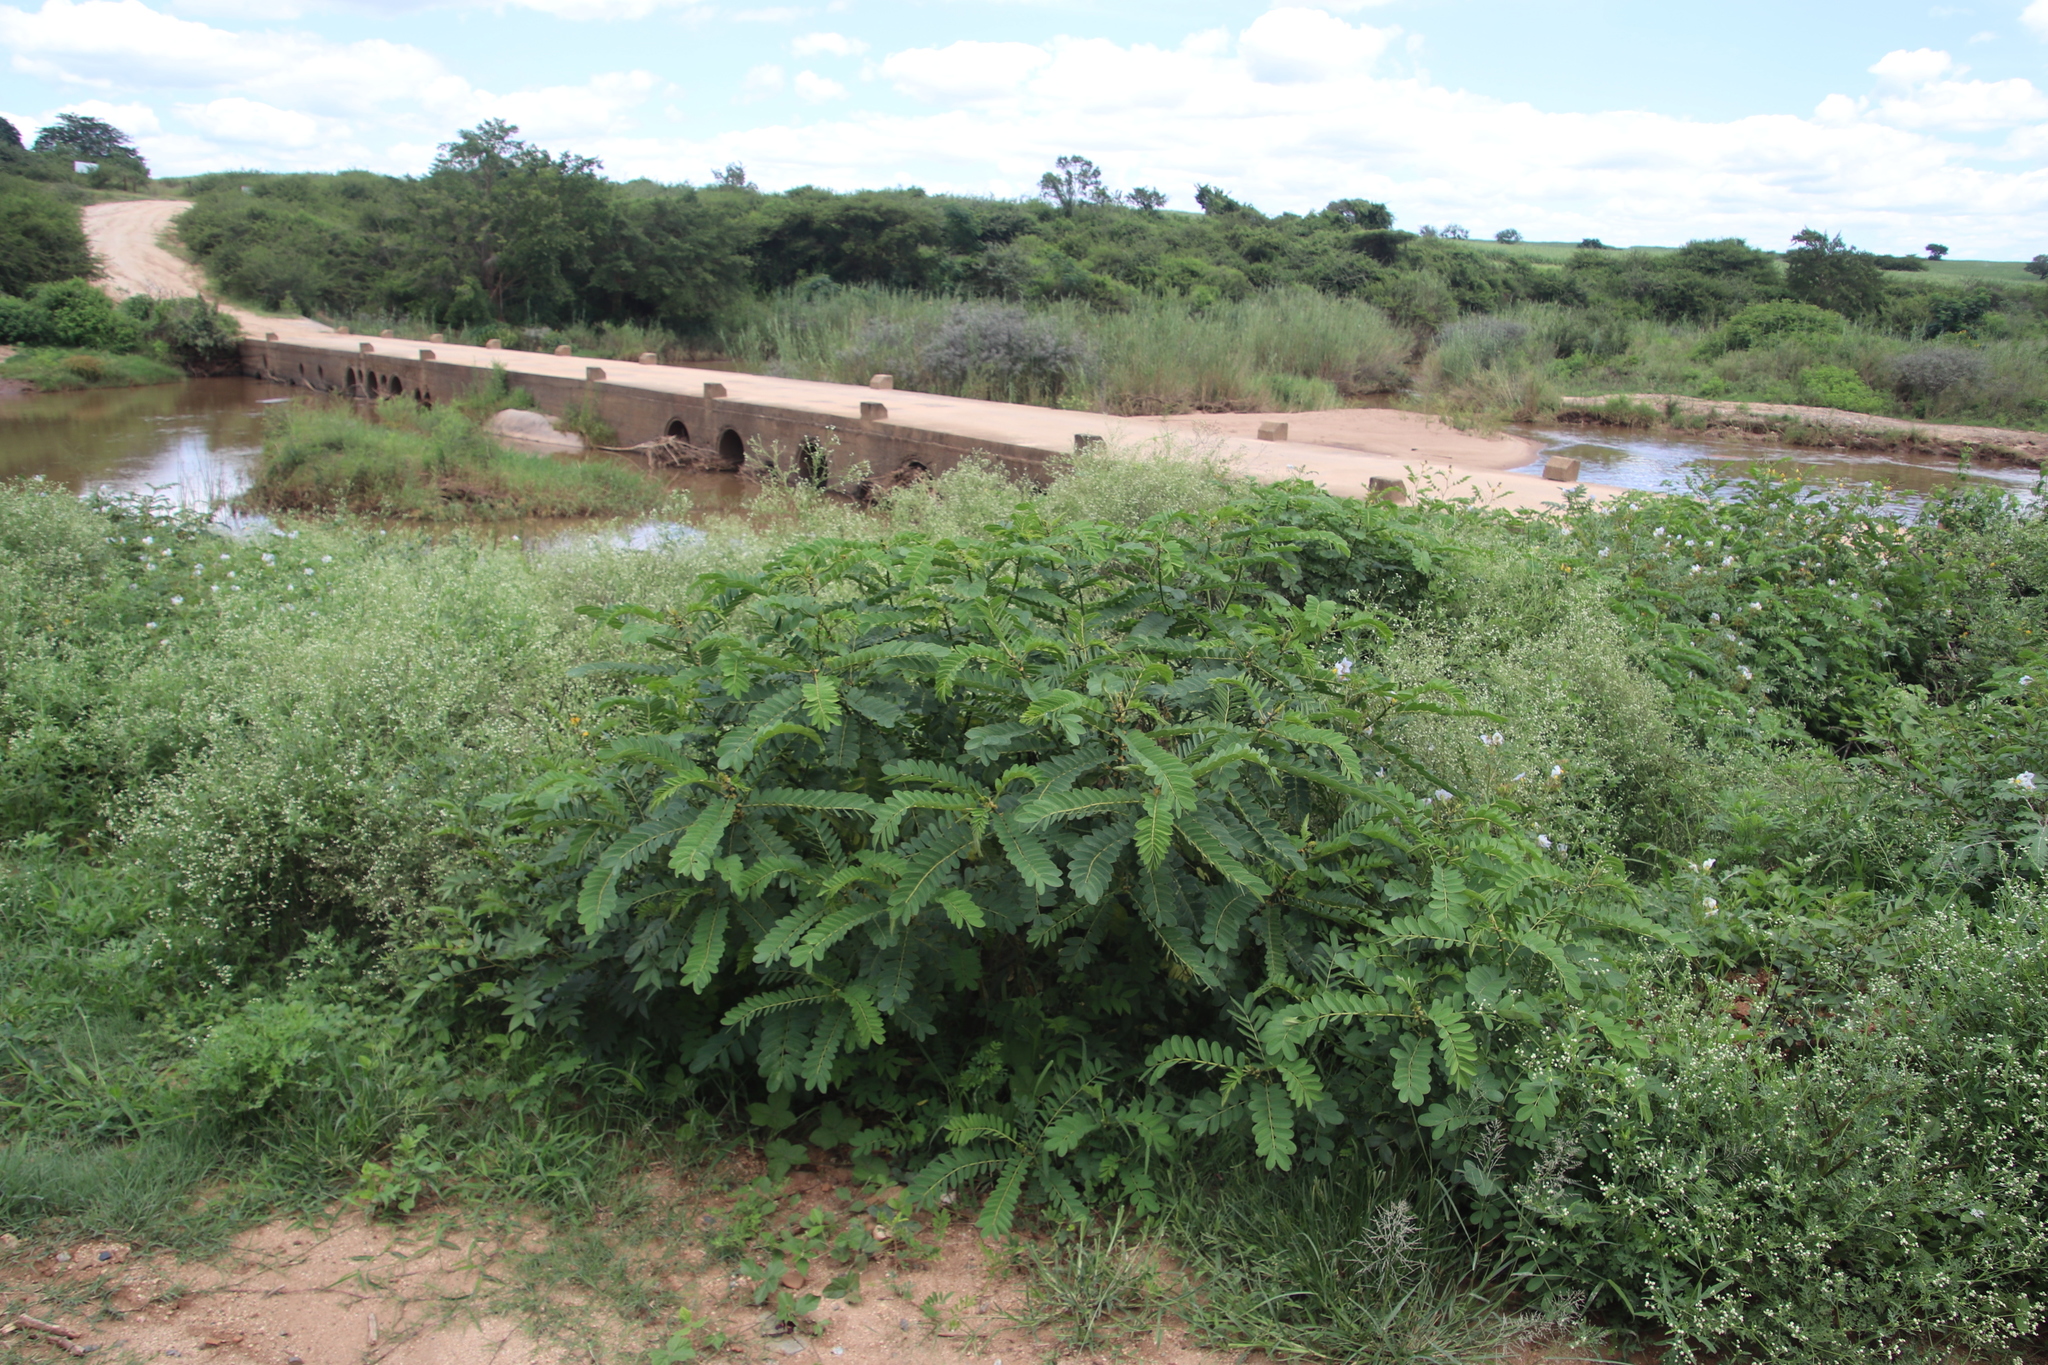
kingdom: Plantae
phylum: Tracheophyta
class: Magnoliopsida
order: Fabales
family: Fabaceae
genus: Senna
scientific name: Senna didymobotrya
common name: African senna
